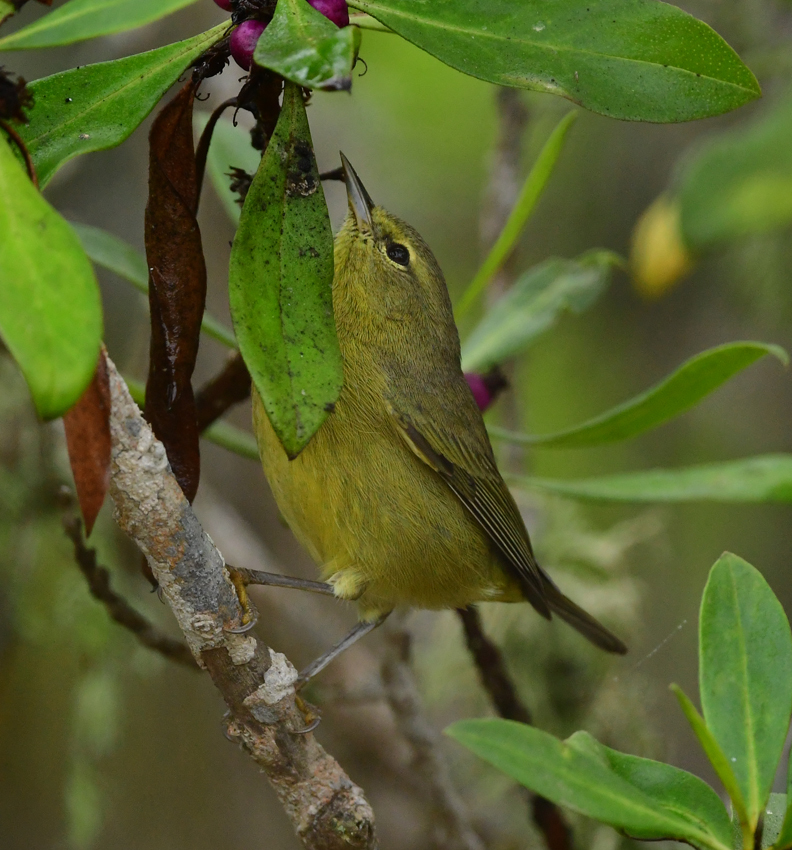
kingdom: Animalia
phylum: Chordata
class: Aves
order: Passeriformes
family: Parulidae
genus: Leiothlypis
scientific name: Leiothlypis celata
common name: Orange-crowned warbler
